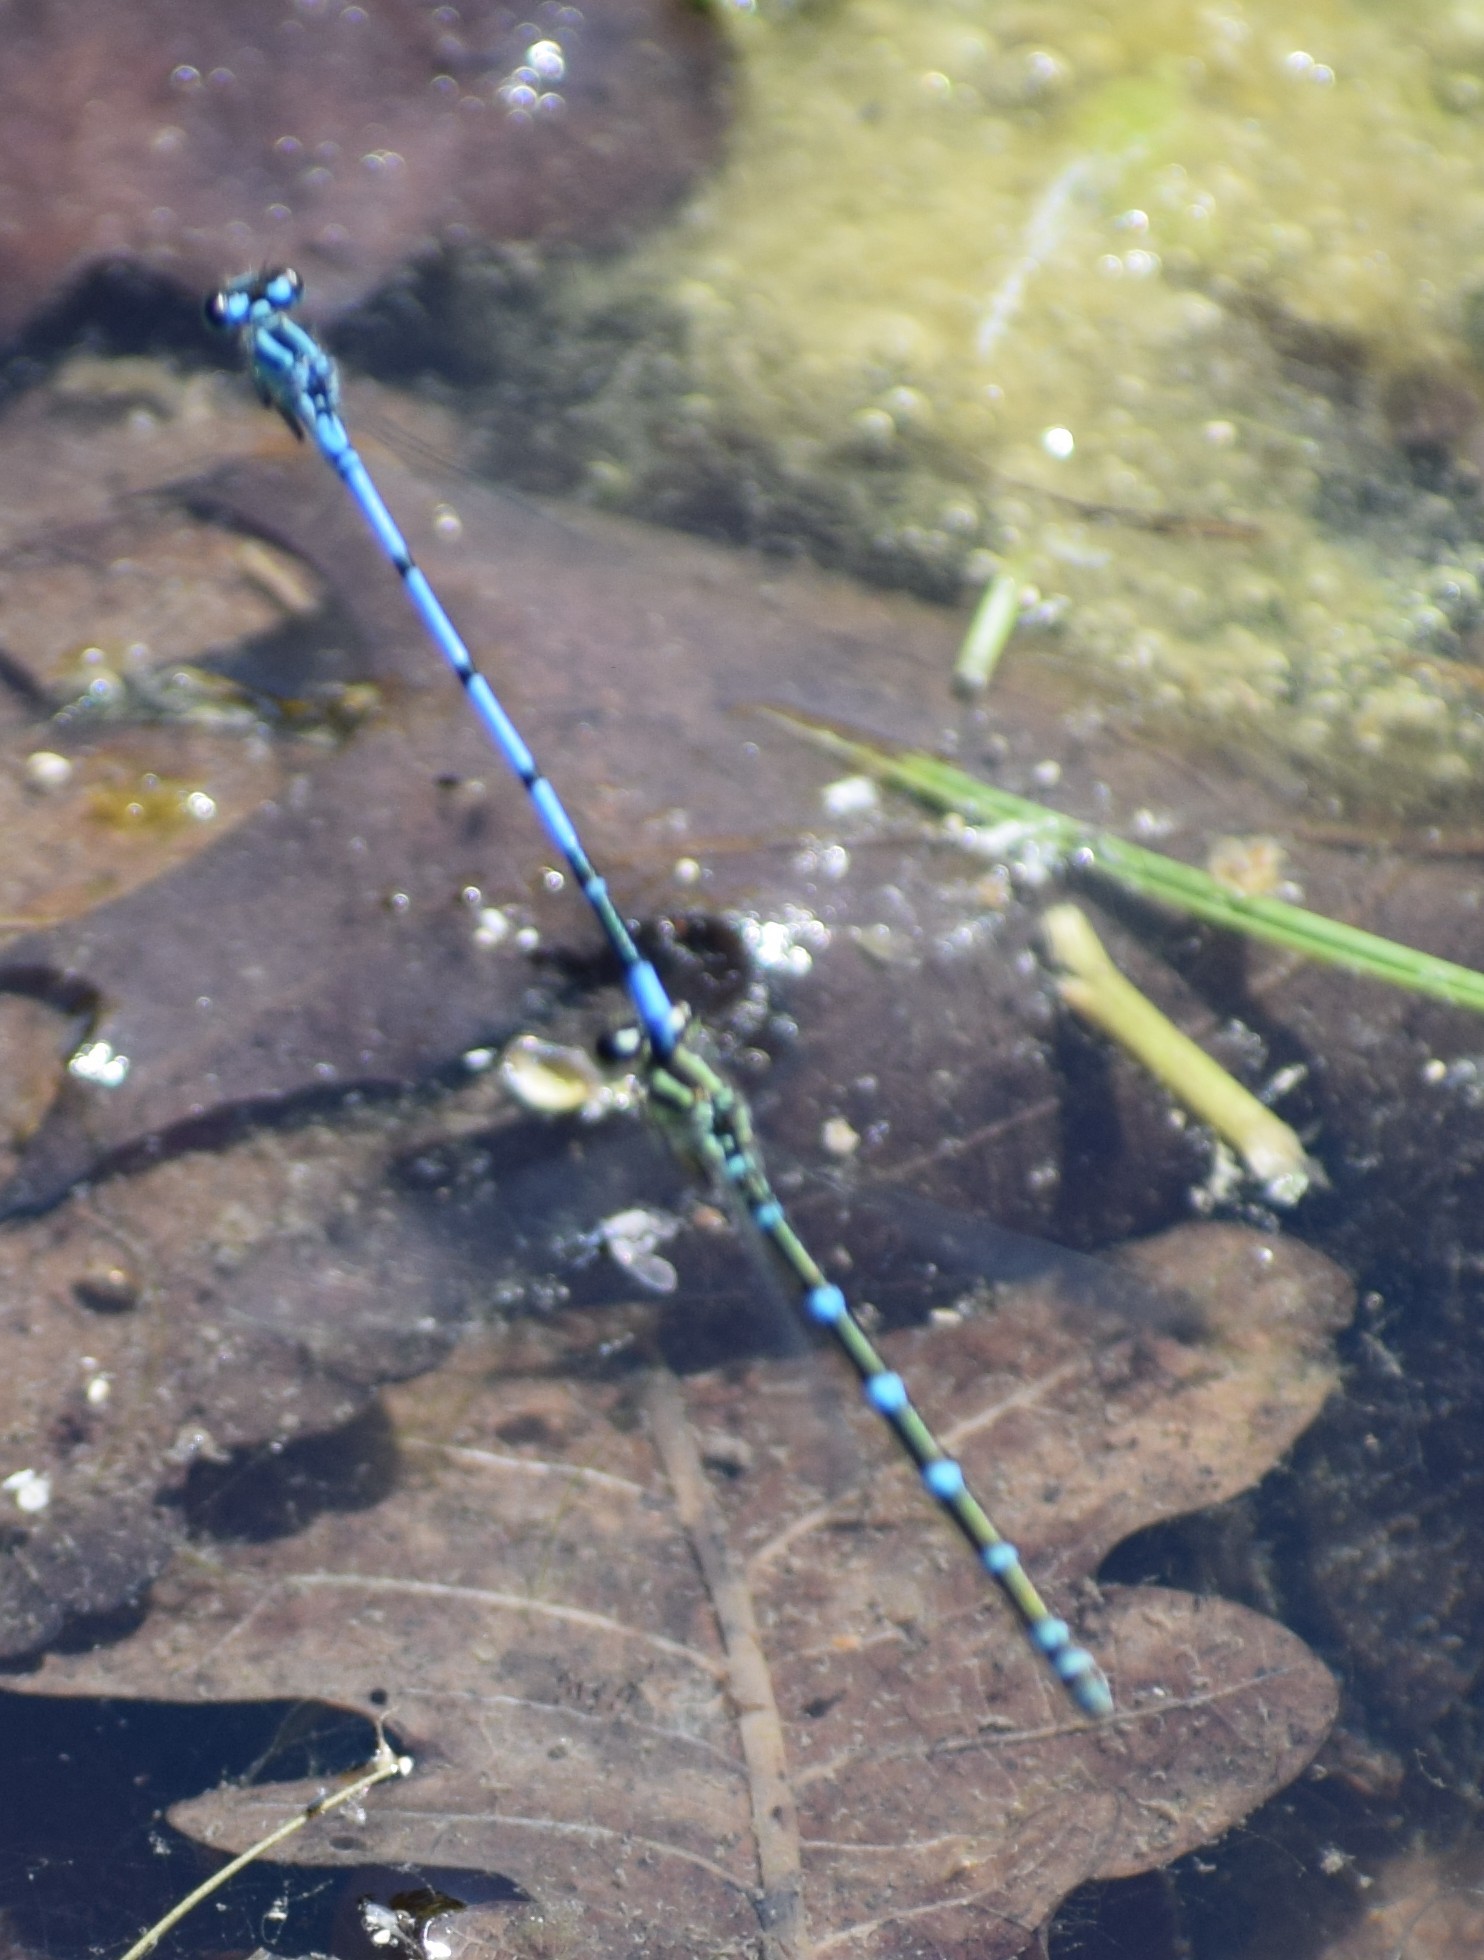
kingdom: Animalia
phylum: Arthropoda
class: Insecta
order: Odonata
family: Coenagrionidae
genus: Coenagrion
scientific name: Coenagrion puella
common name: Azure damselfly
